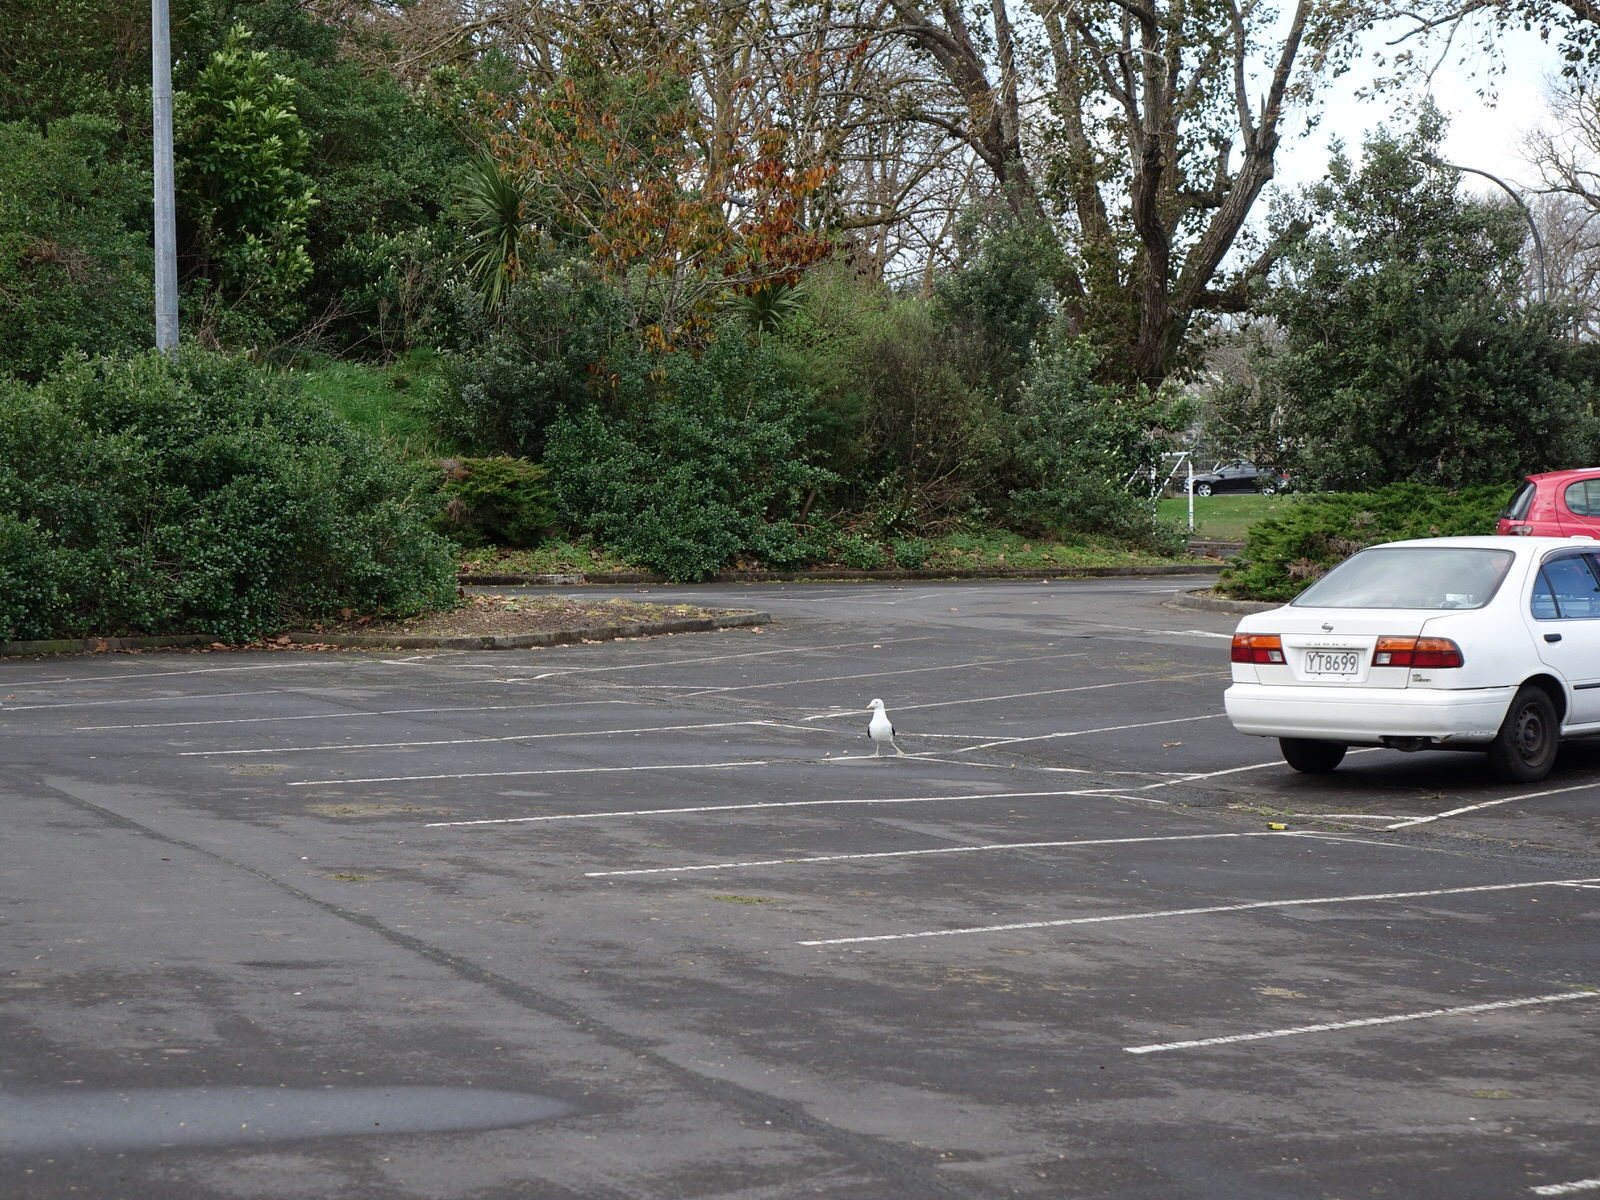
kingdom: Animalia
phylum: Chordata
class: Aves
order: Charadriiformes
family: Laridae
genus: Larus
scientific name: Larus dominicanus
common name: Kelp gull
